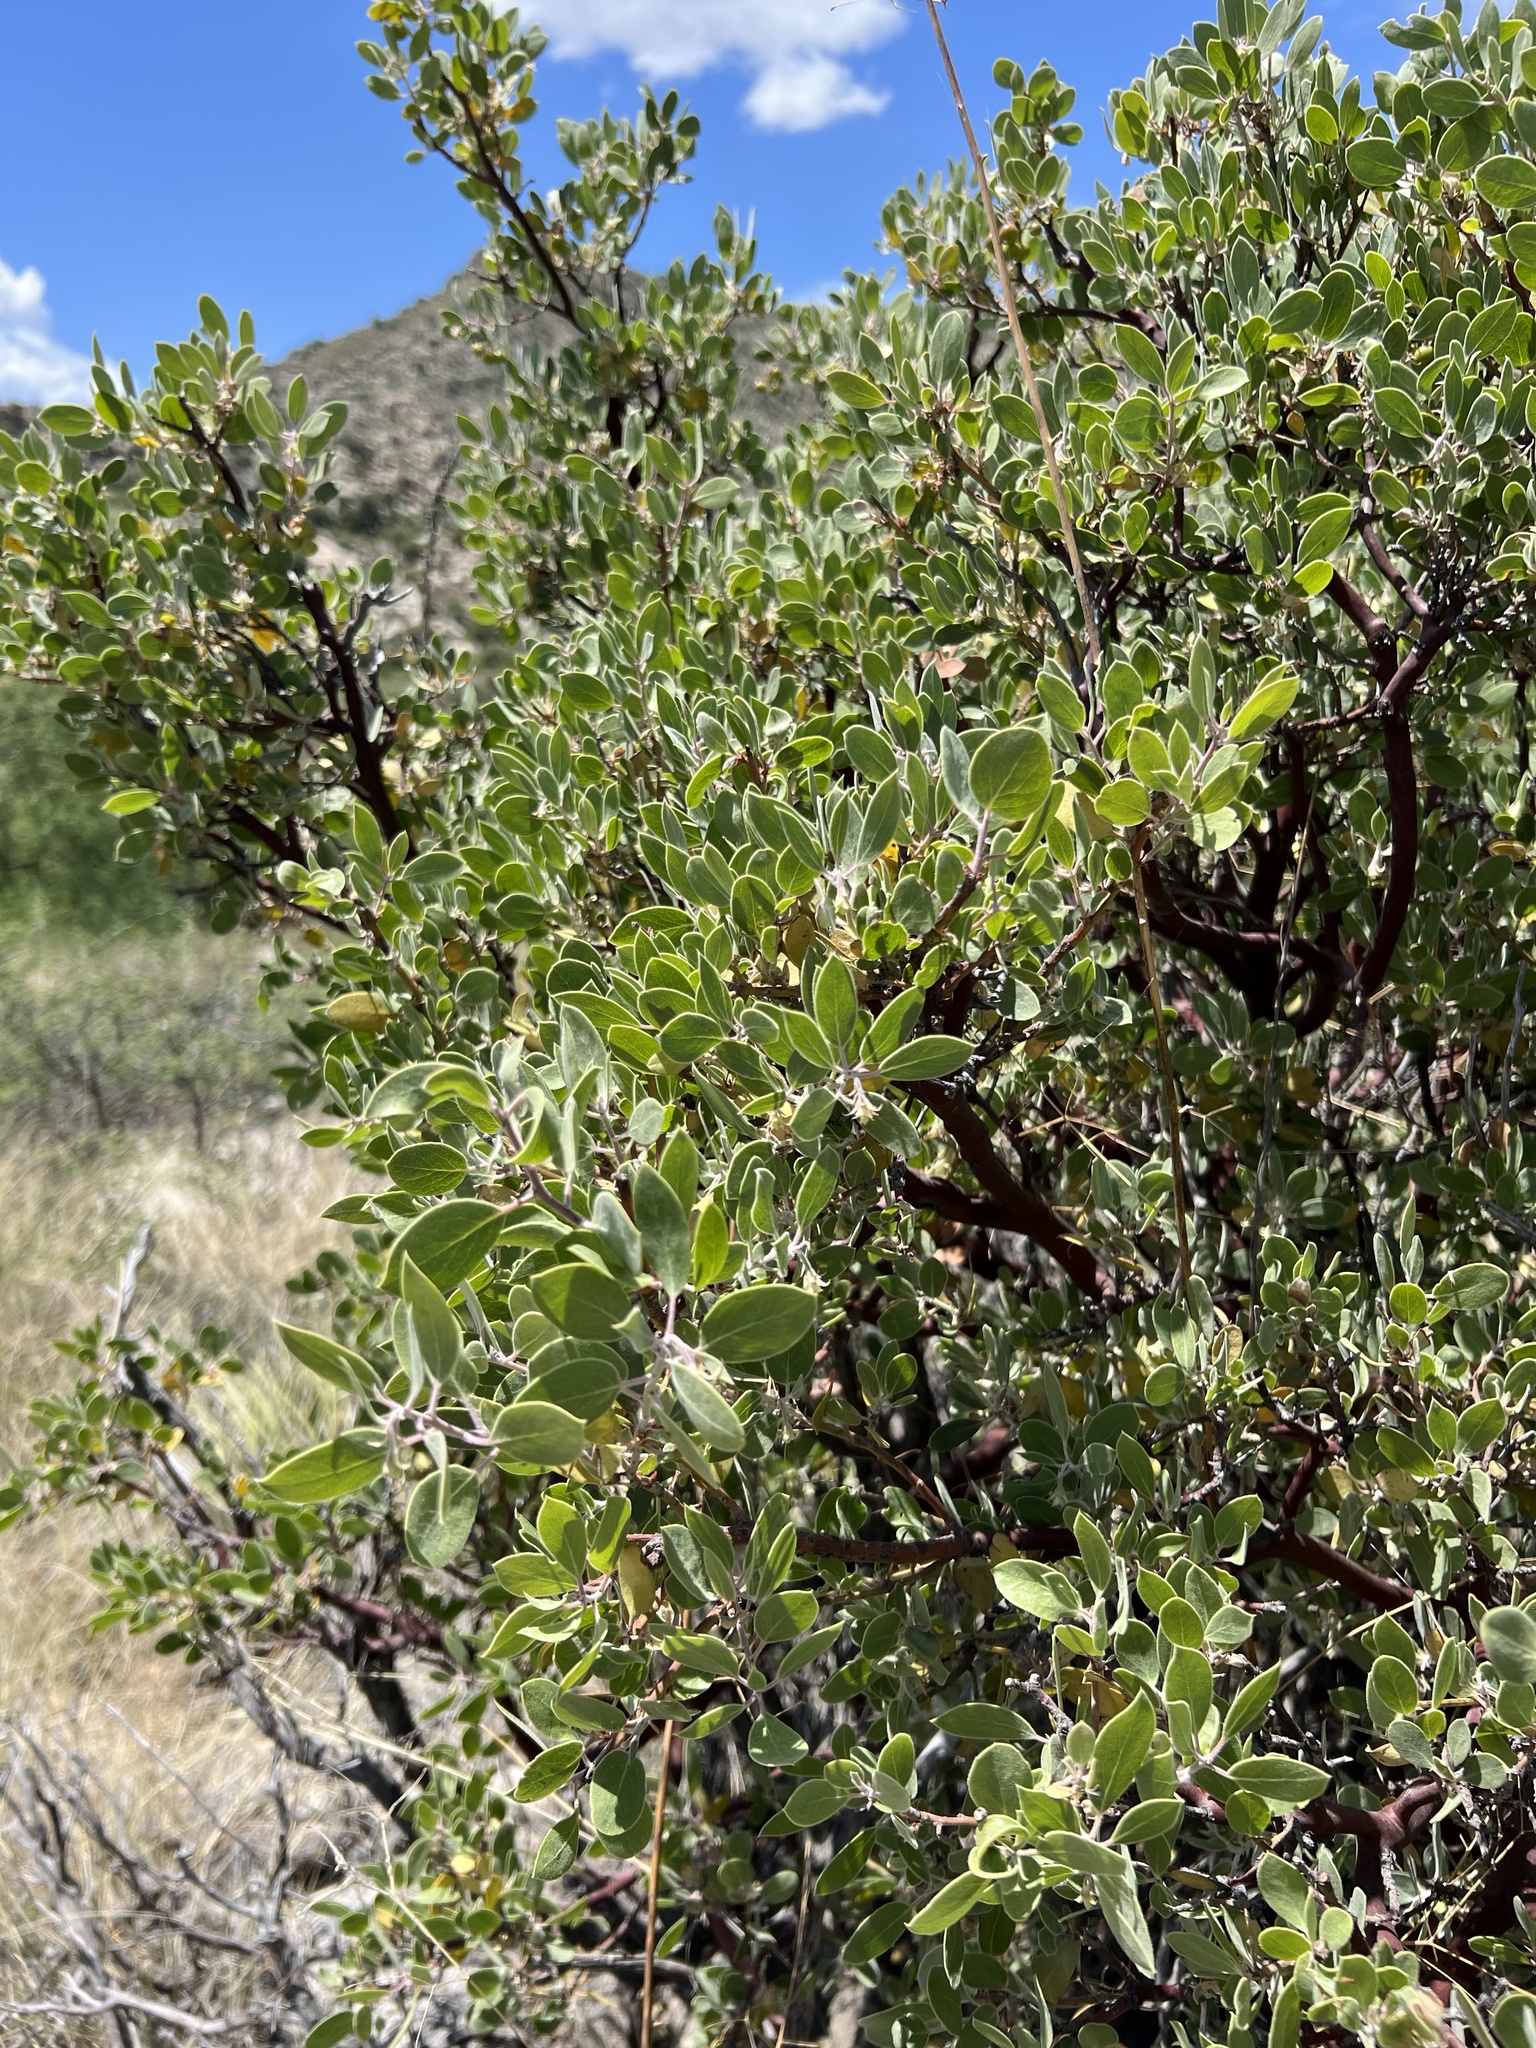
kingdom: Plantae
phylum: Tracheophyta
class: Magnoliopsida
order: Ericales
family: Ericaceae
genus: Arctostaphylos
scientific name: Arctostaphylos pungens
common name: Mexican manzanita
